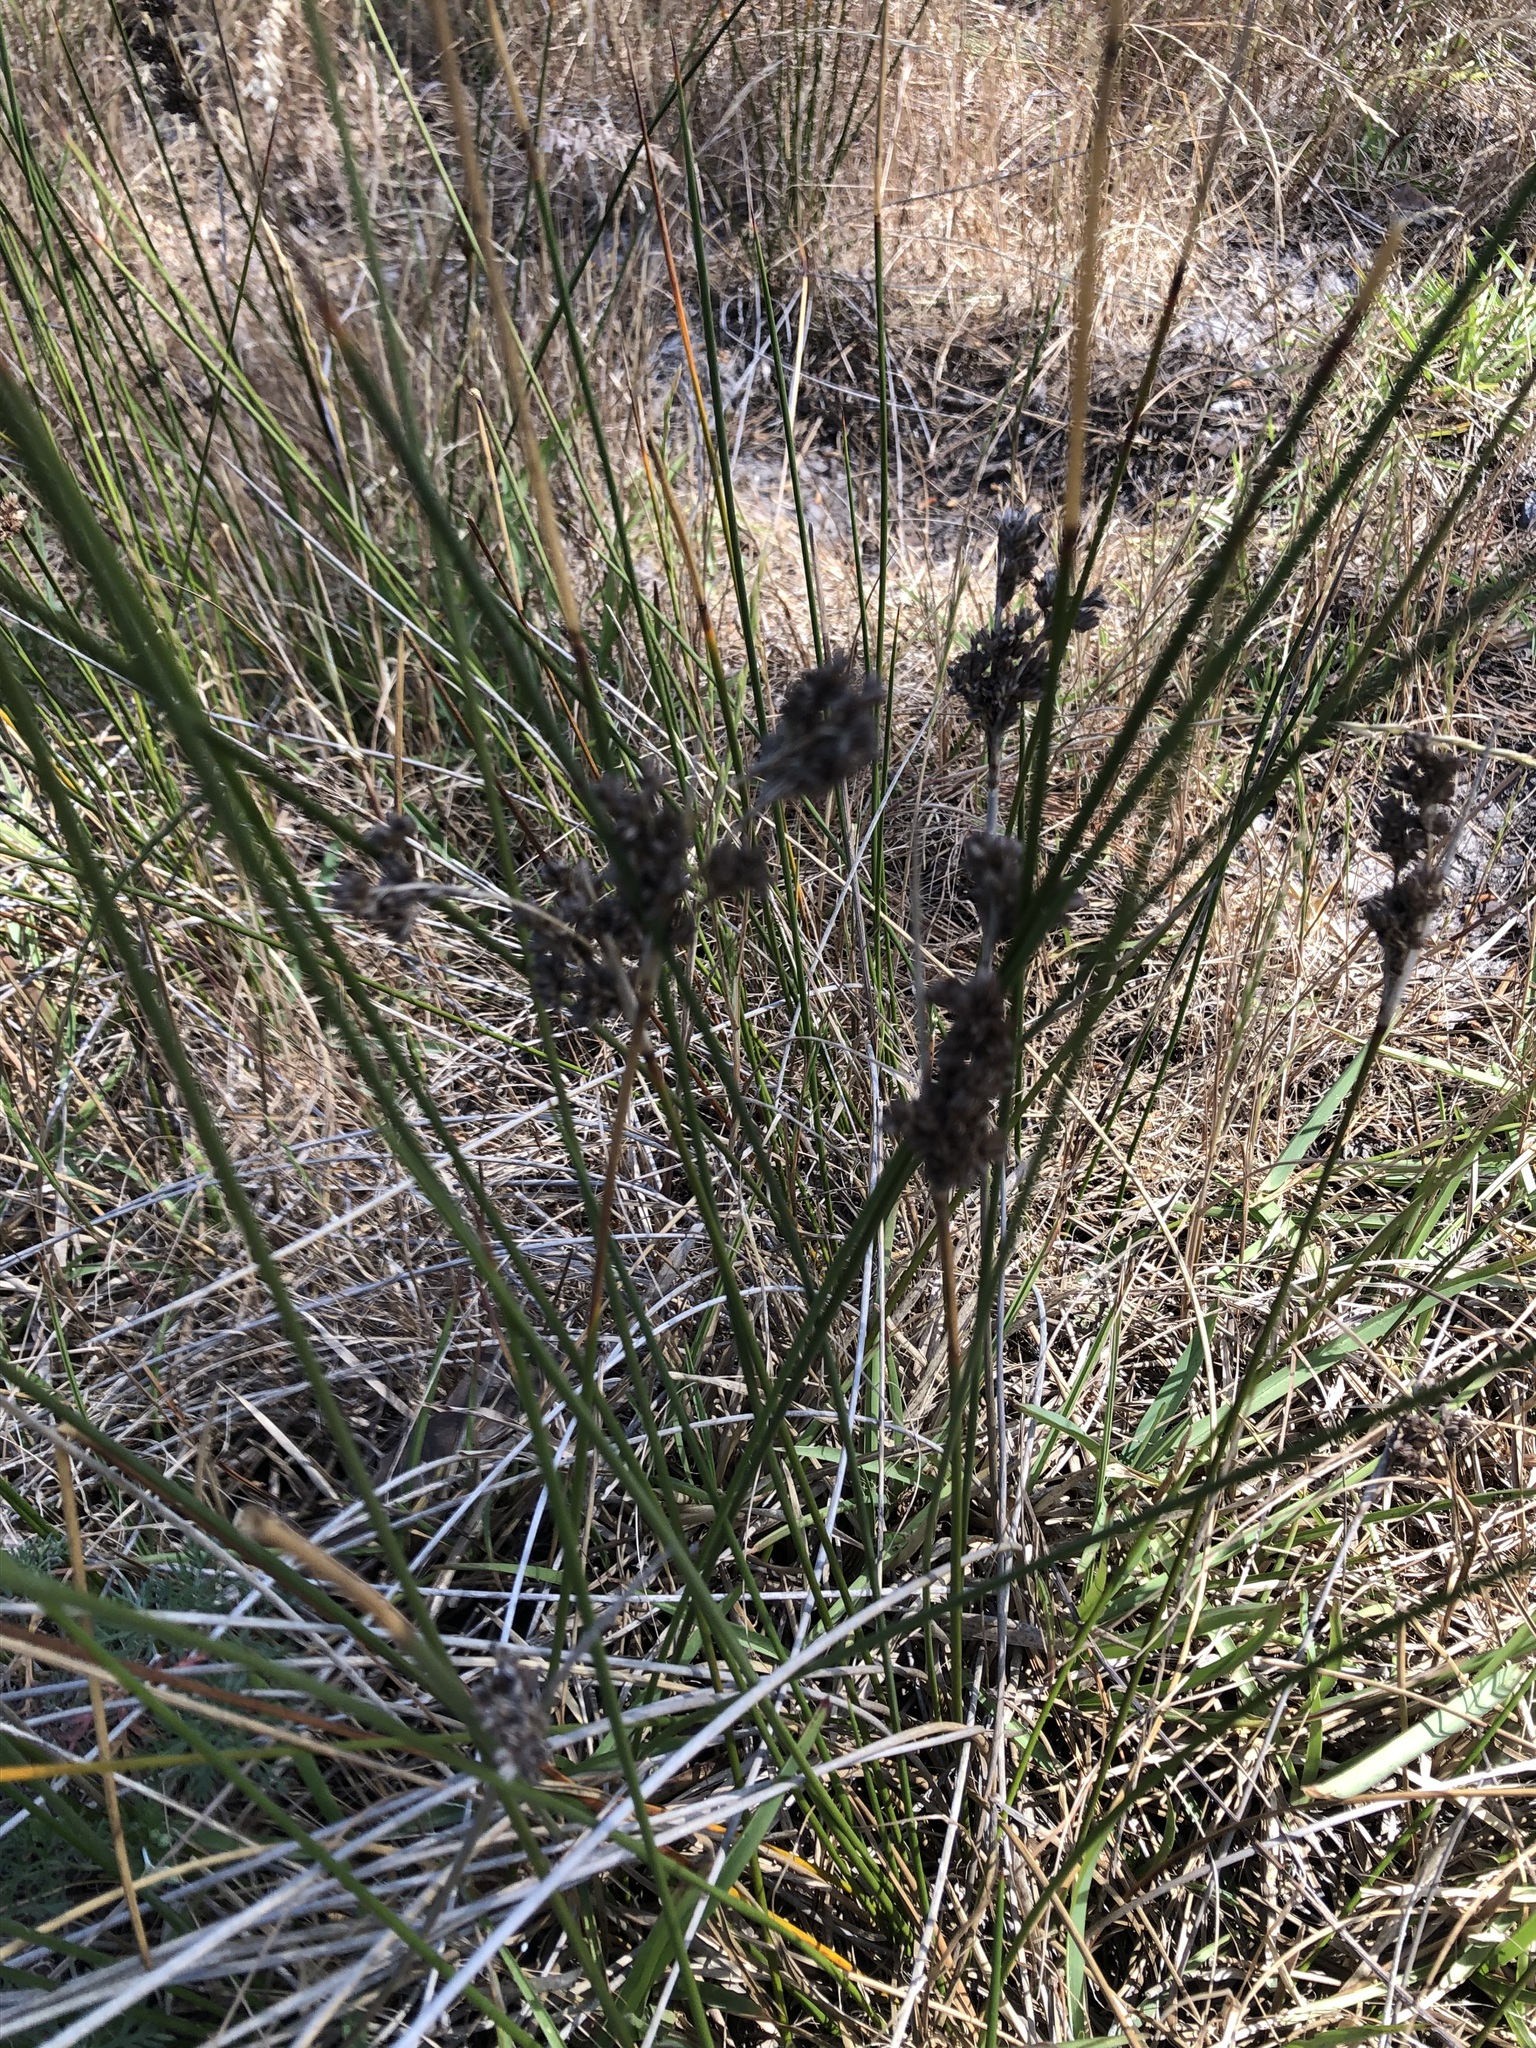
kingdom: Plantae
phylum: Tracheophyta
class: Liliopsida
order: Poales
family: Juncaceae
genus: Juncus
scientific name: Juncus kraussii
